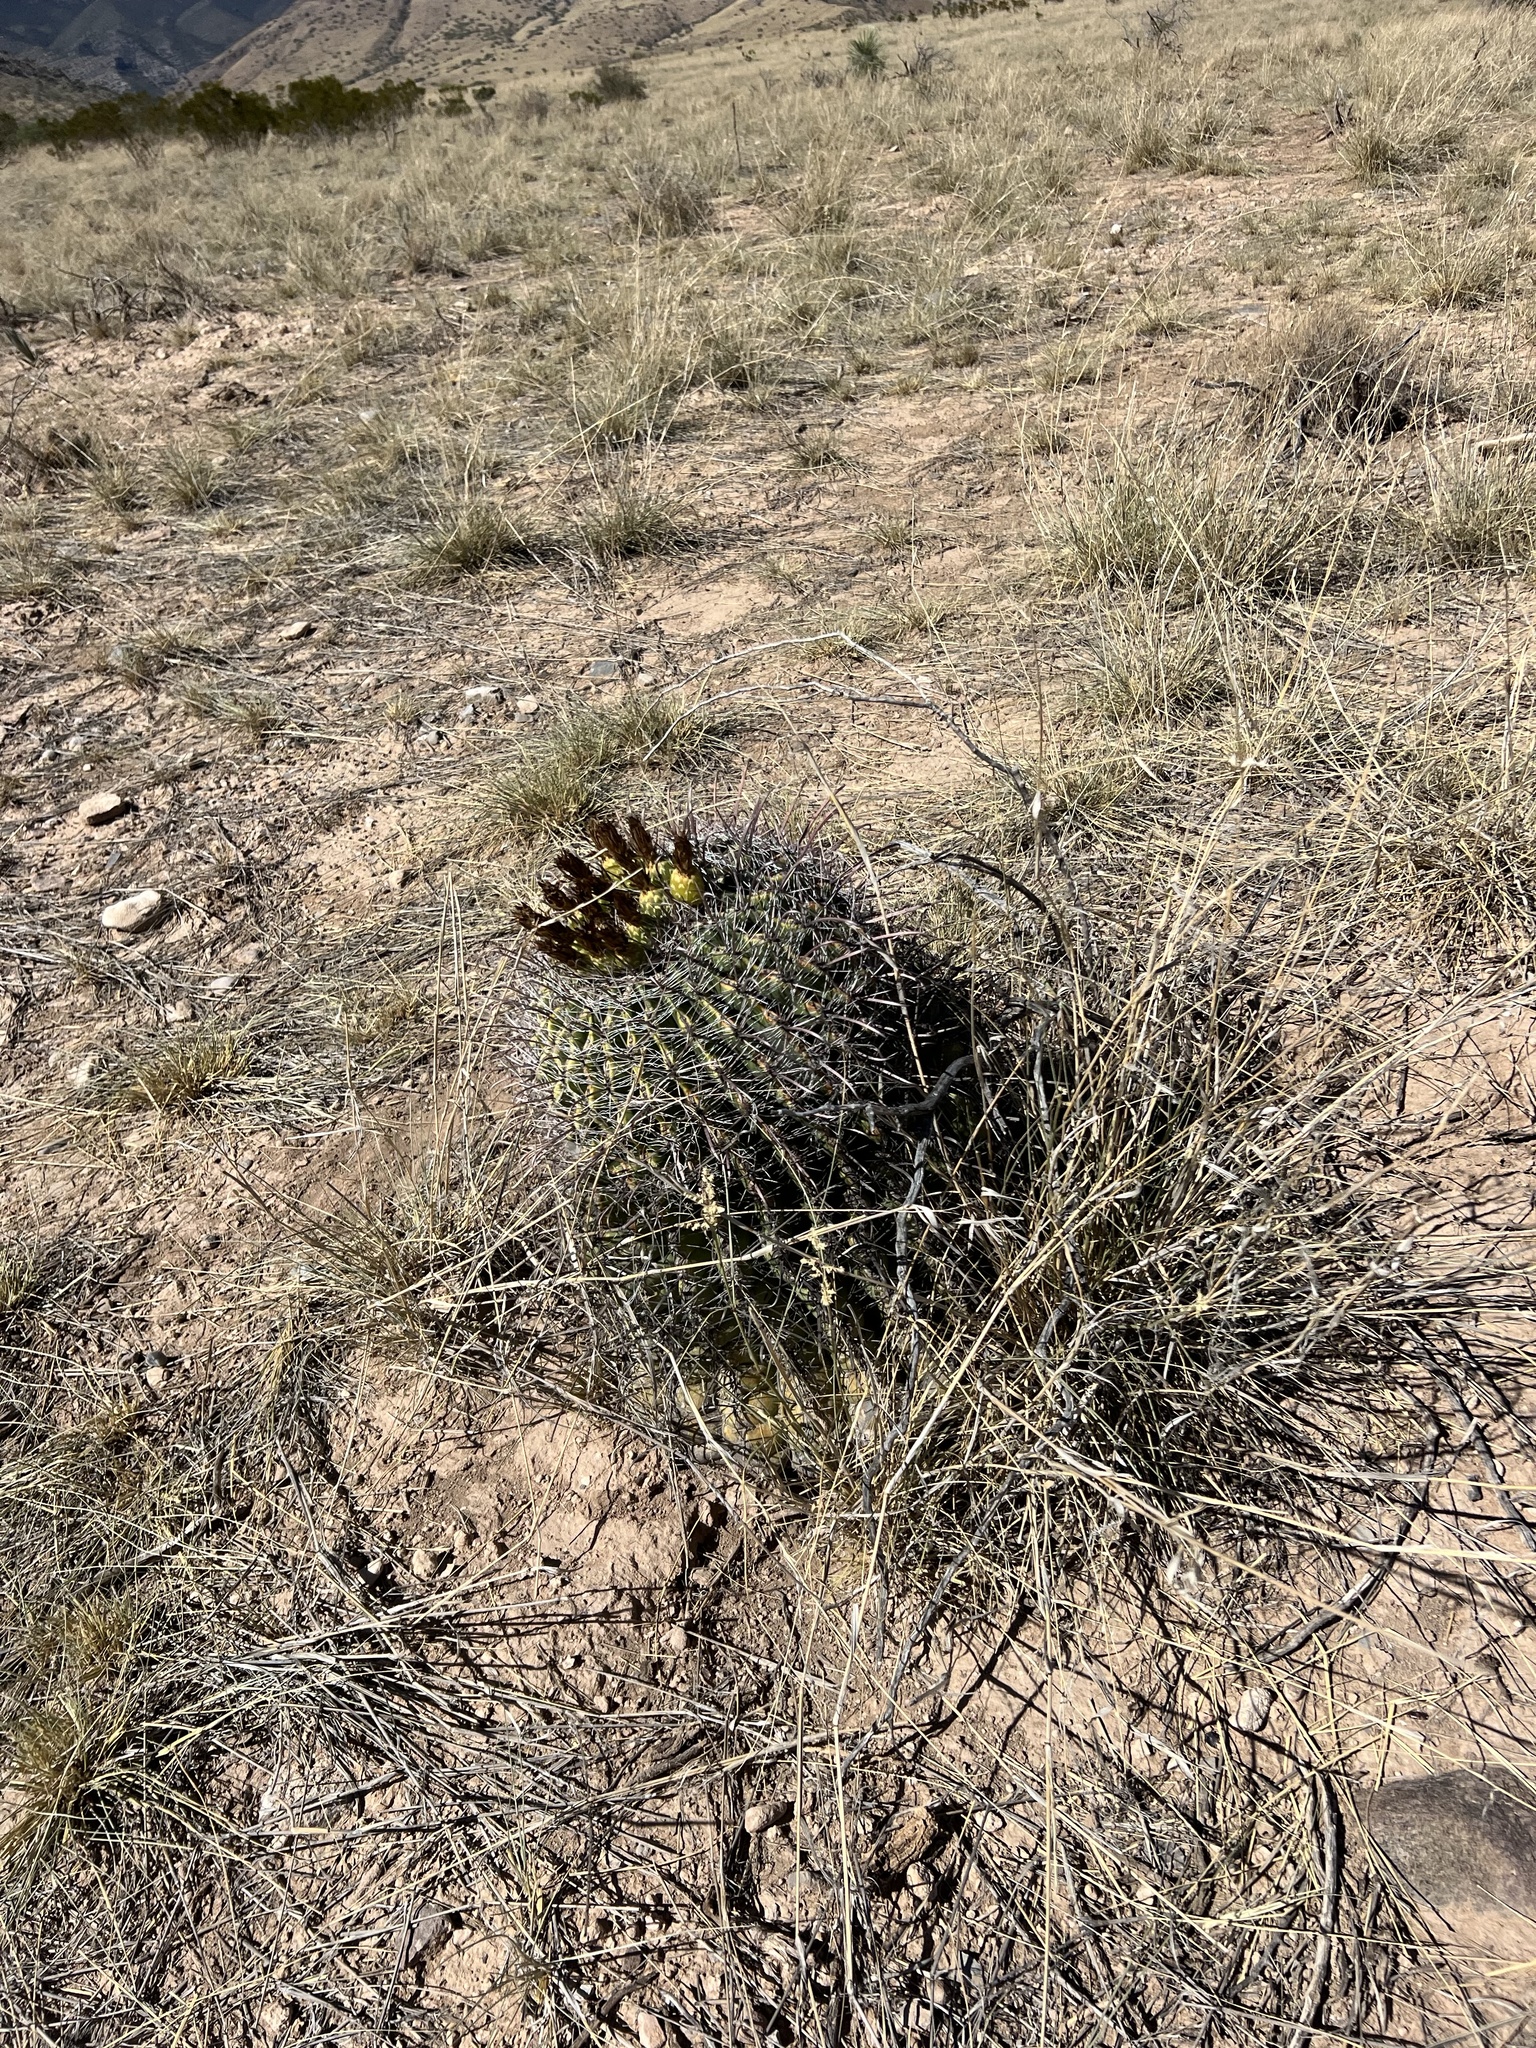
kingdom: Plantae
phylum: Tracheophyta
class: Magnoliopsida
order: Caryophyllales
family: Cactaceae
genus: Ferocactus
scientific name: Ferocactus wislizeni
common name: Candy barrel cactus
